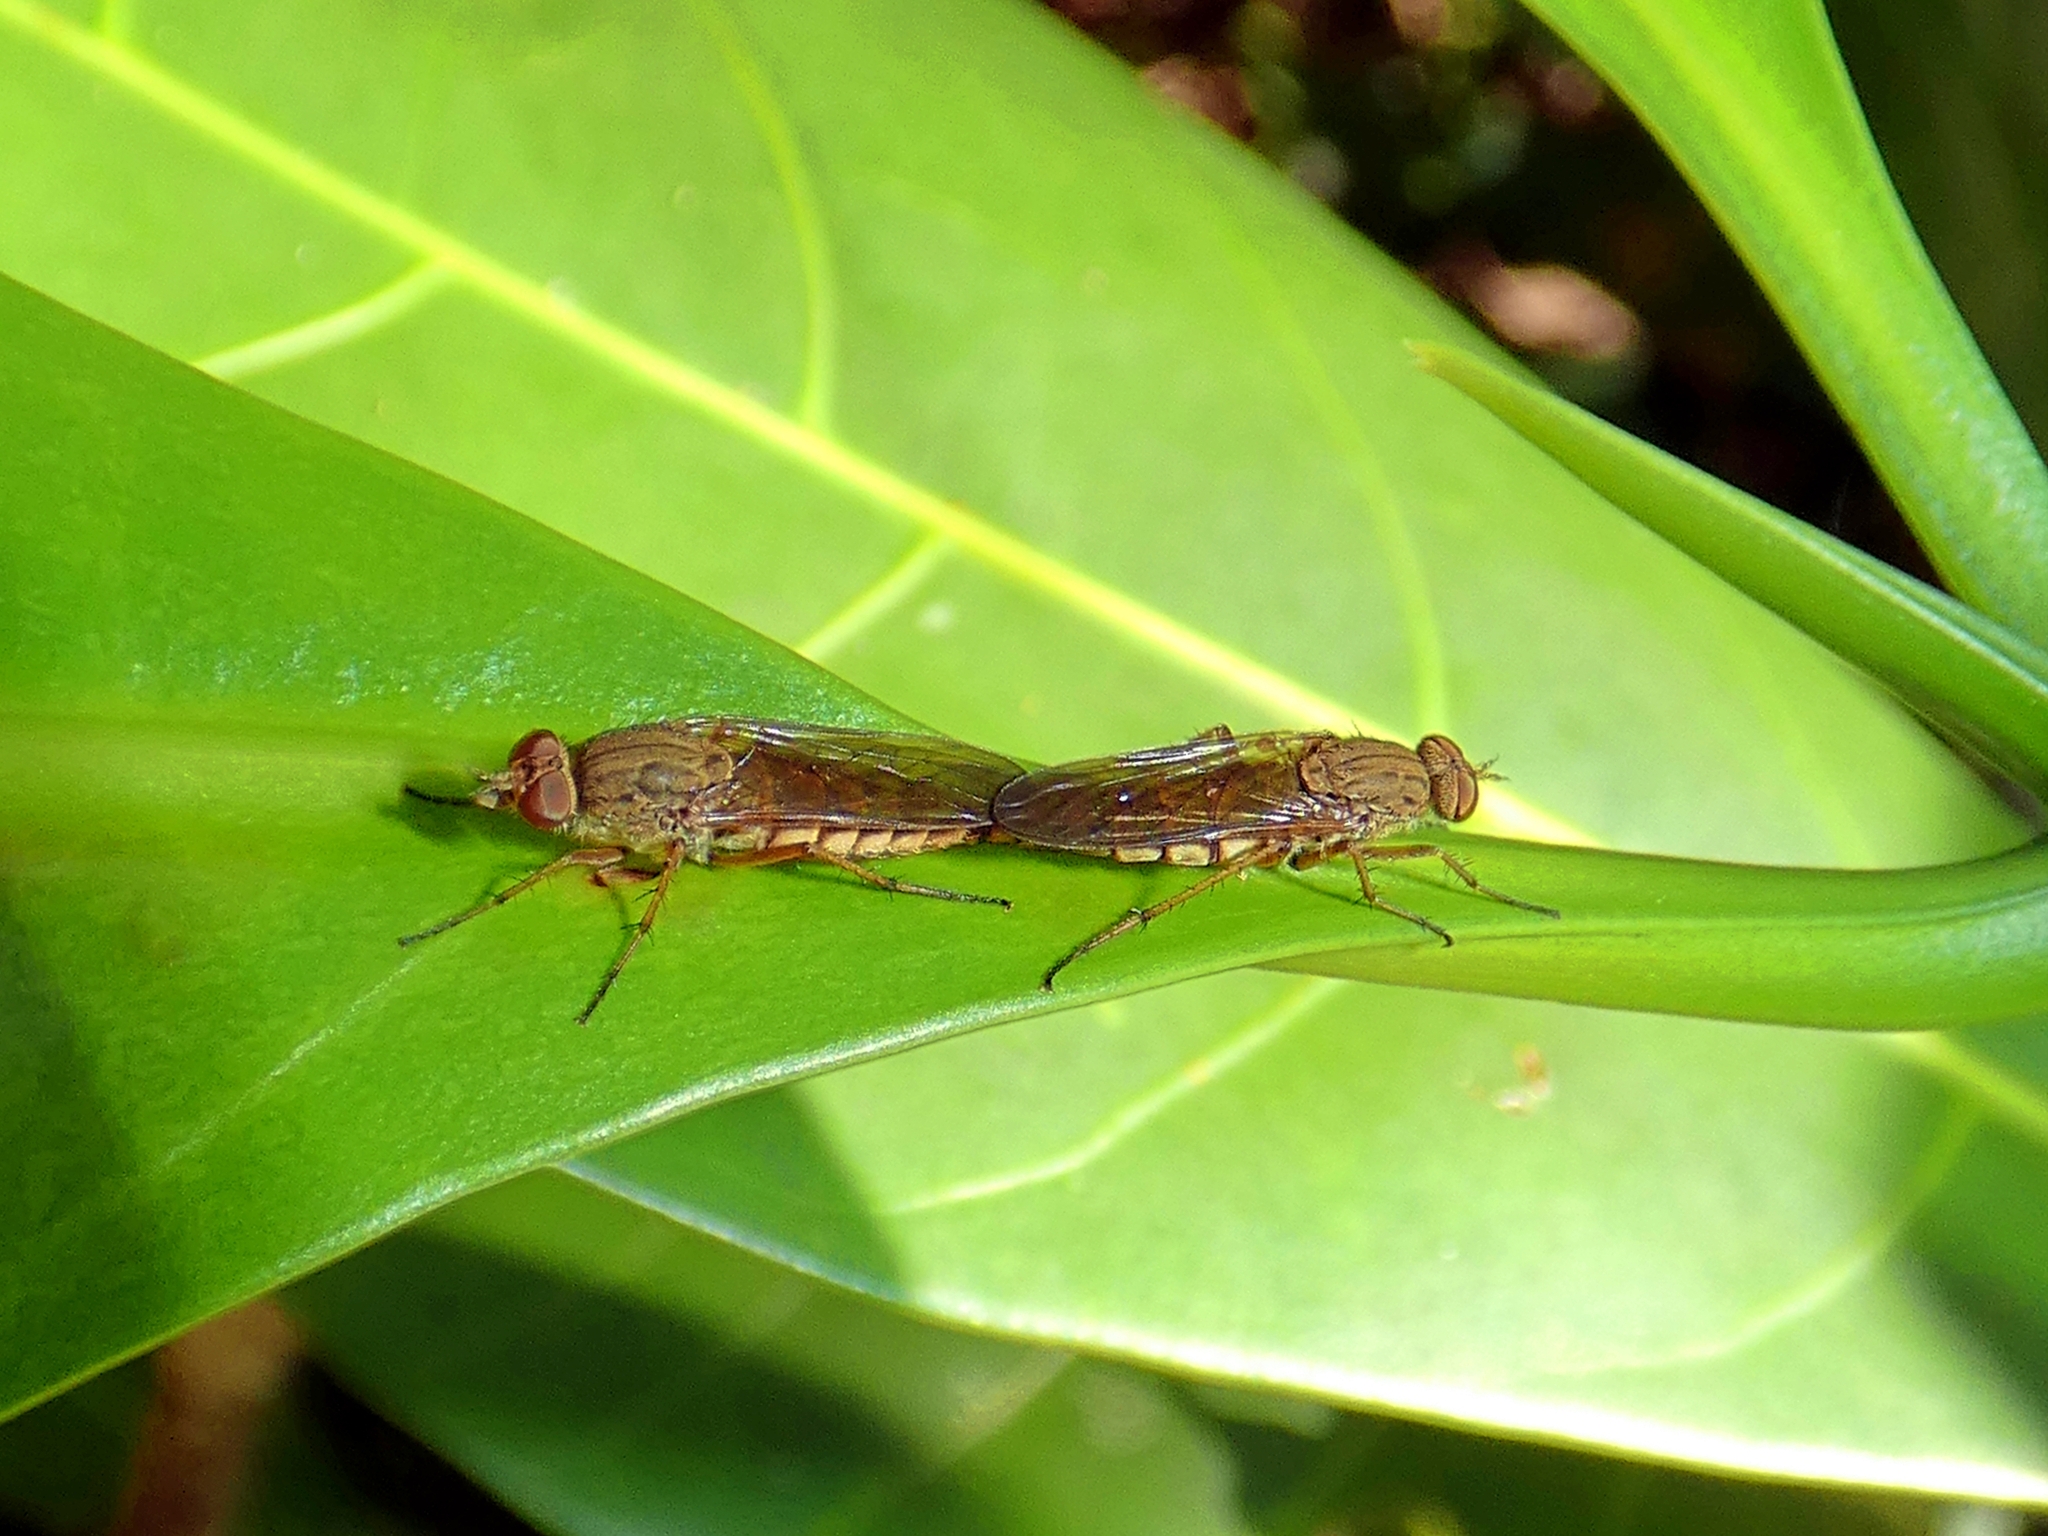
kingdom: Animalia
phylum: Arthropoda
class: Insecta
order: Diptera
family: Therevidae
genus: Anabarhynchus
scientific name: Anabarhynchus ornatifrons
